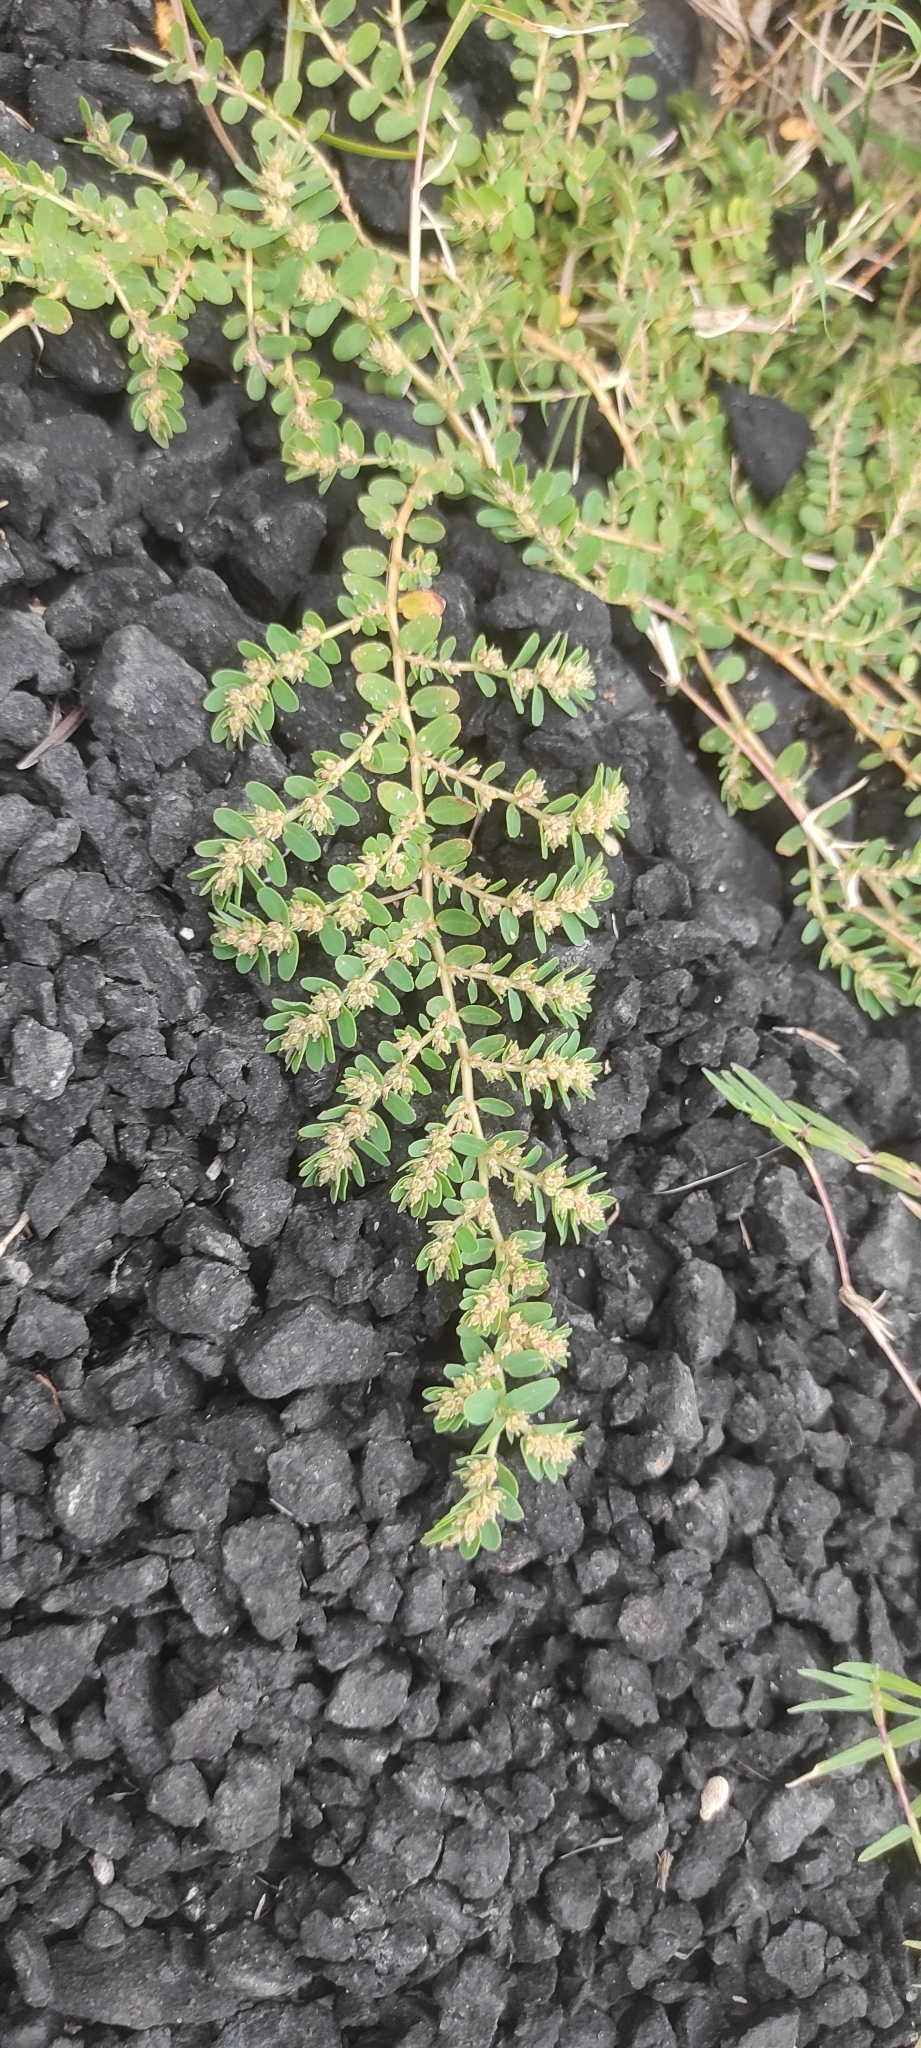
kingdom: Plantae
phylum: Tracheophyta
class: Magnoliopsida
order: Malpighiales
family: Euphorbiaceae
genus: Euphorbia
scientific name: Euphorbia thymifolia
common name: Gulf sandmat
